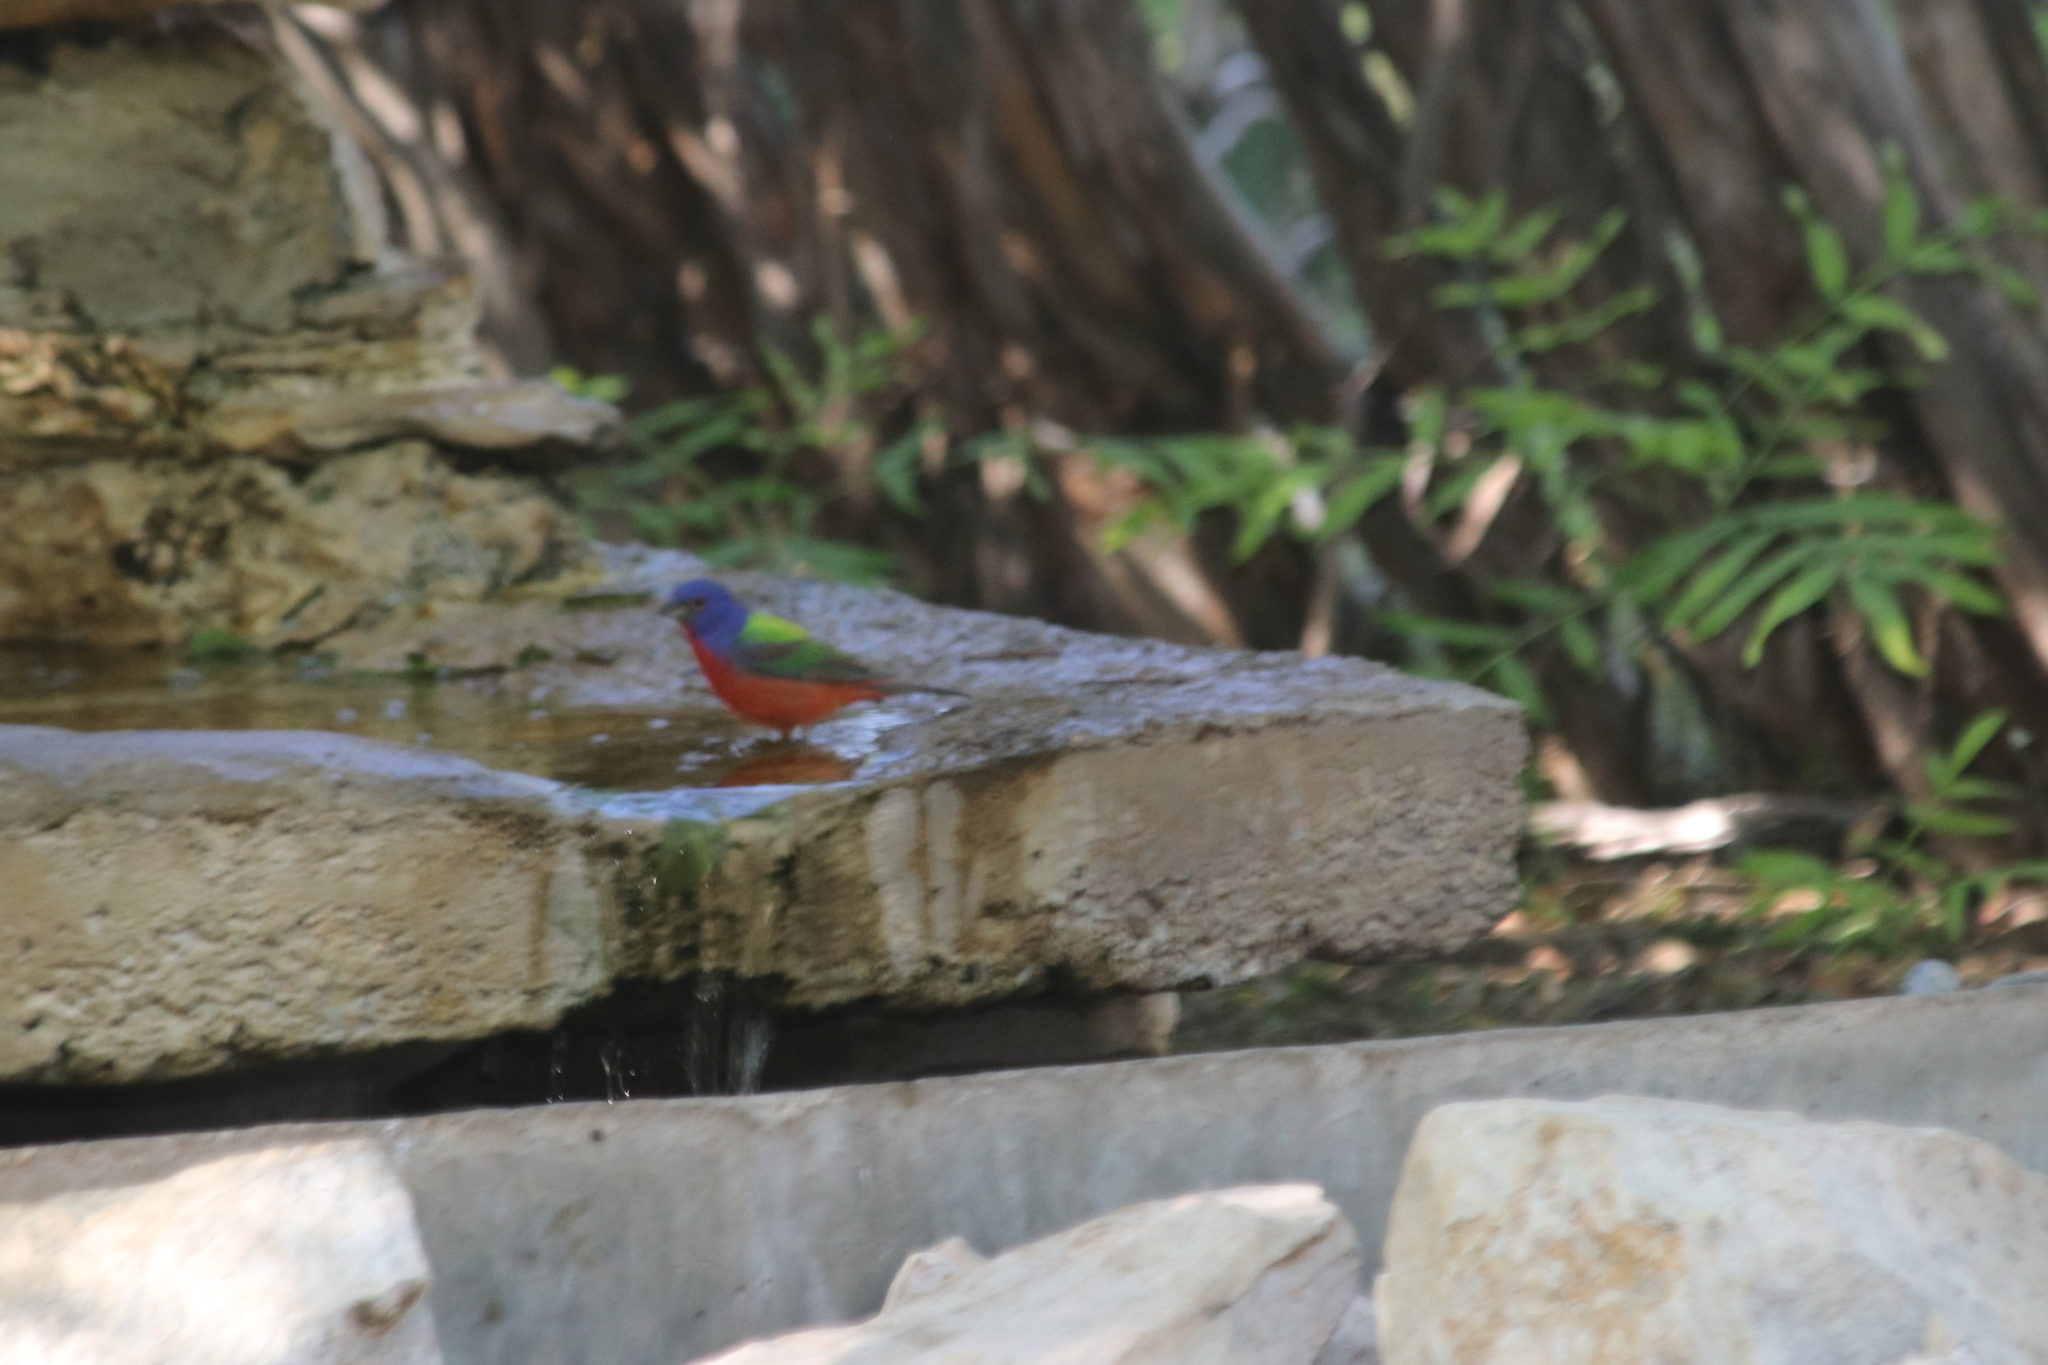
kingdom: Animalia
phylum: Chordata
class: Aves
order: Passeriformes
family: Cardinalidae
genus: Passerina
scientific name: Passerina ciris
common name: Painted bunting
